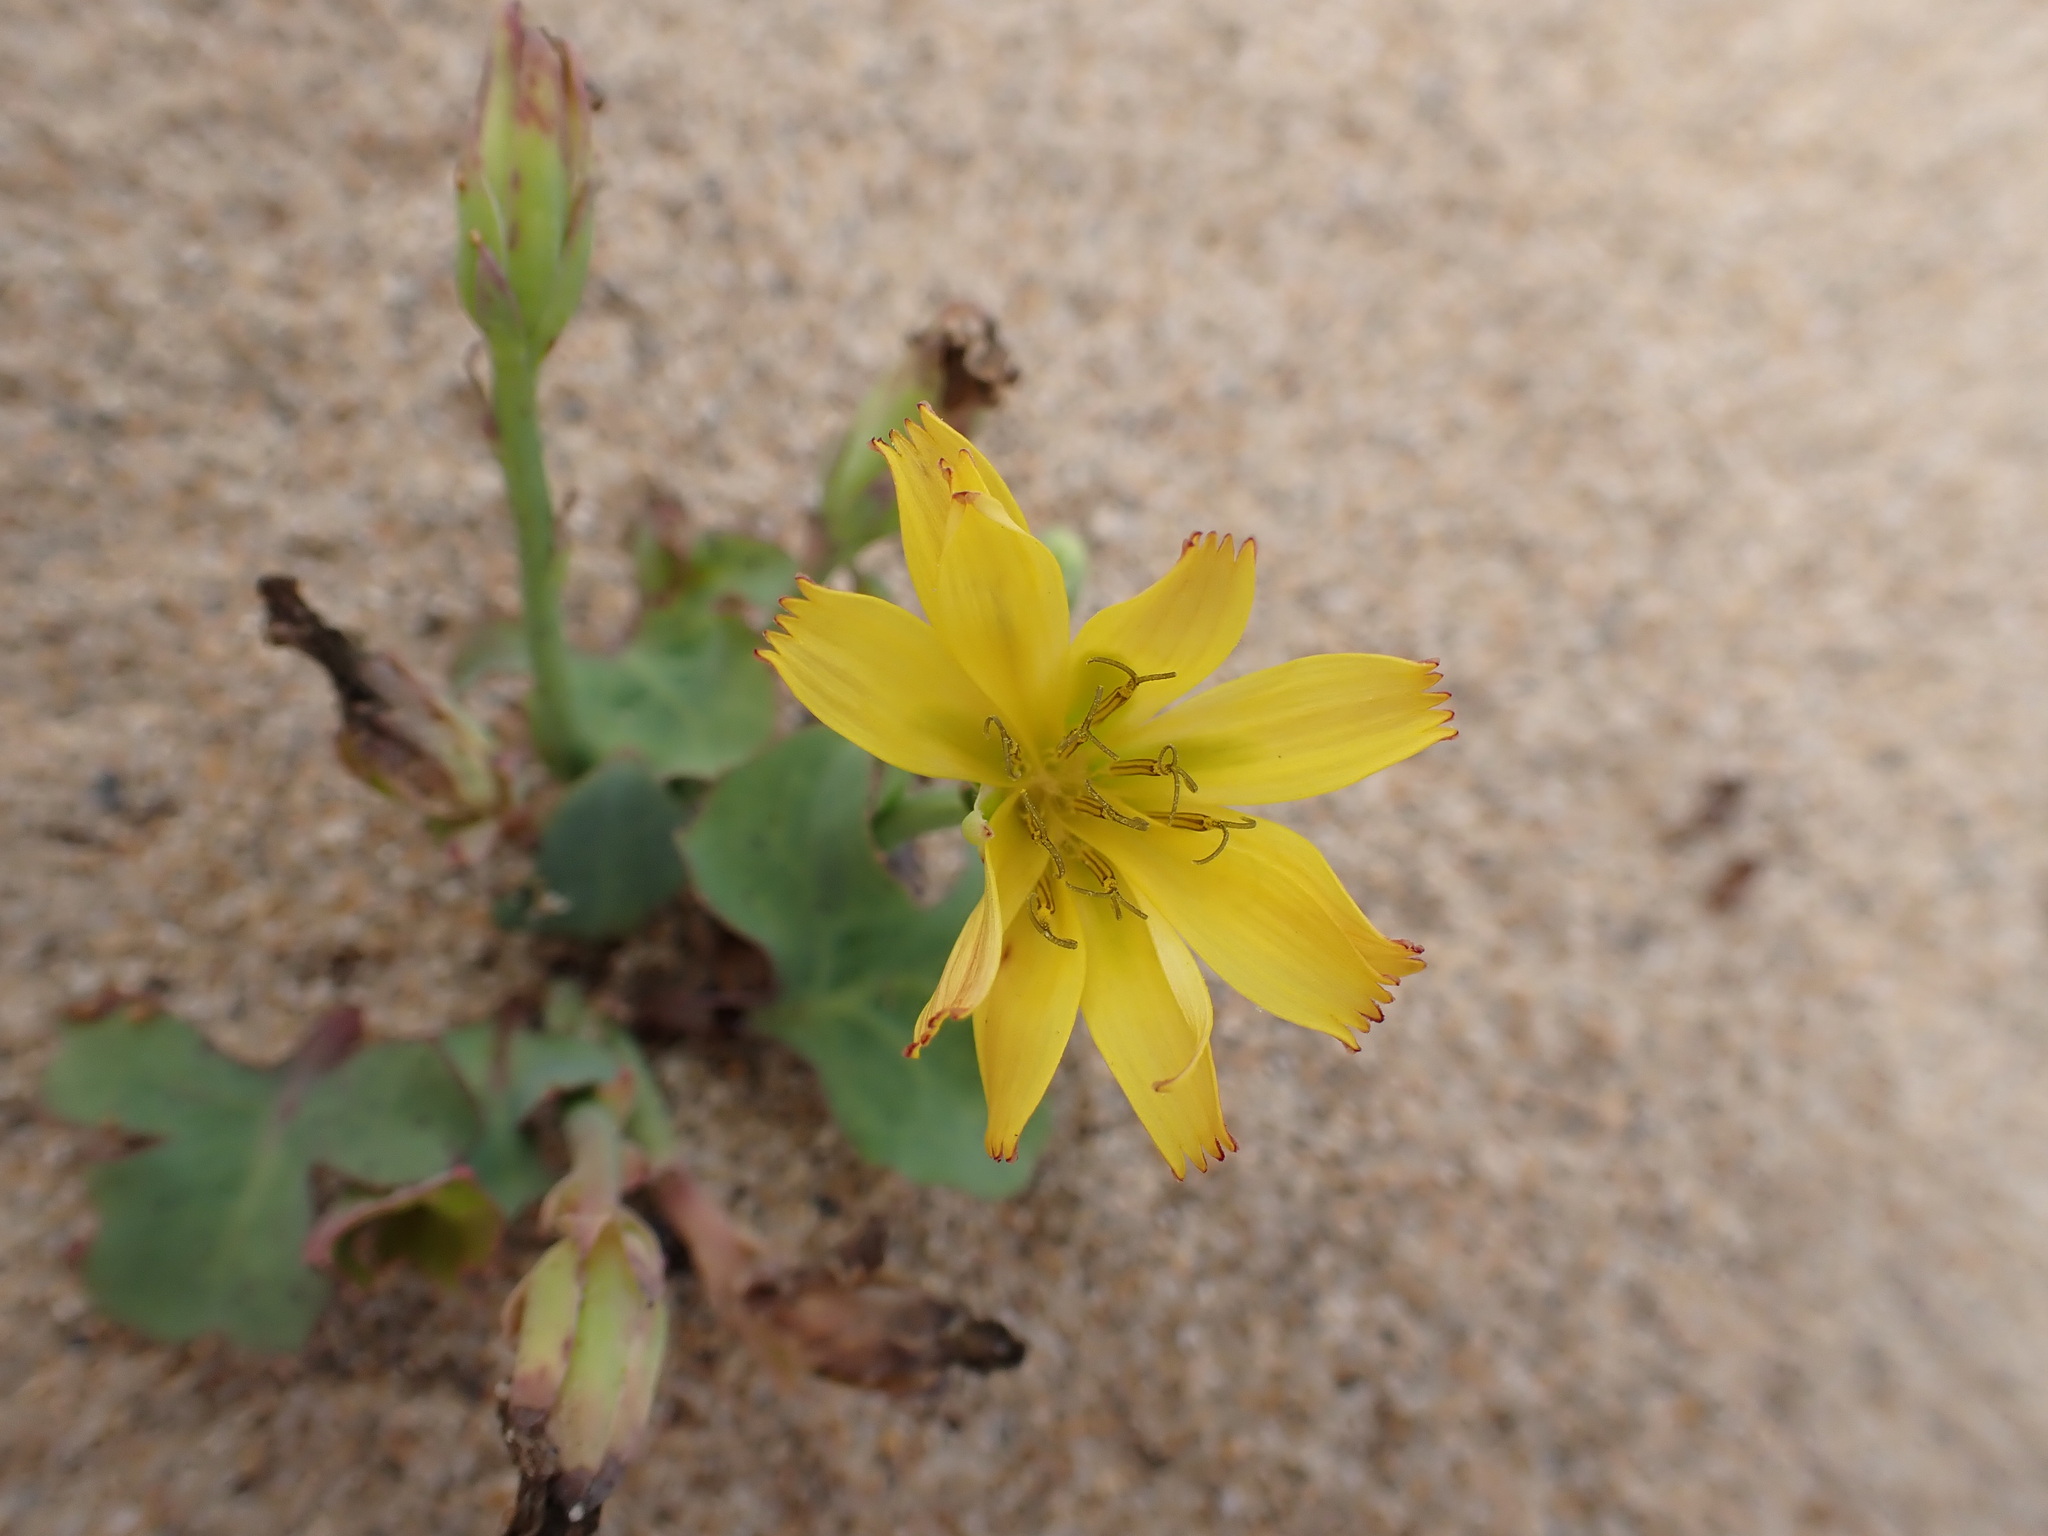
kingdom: Plantae
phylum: Tracheophyta
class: Magnoliopsida
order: Asterales
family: Asteraceae
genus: Ixeris
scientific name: Ixeris repens
